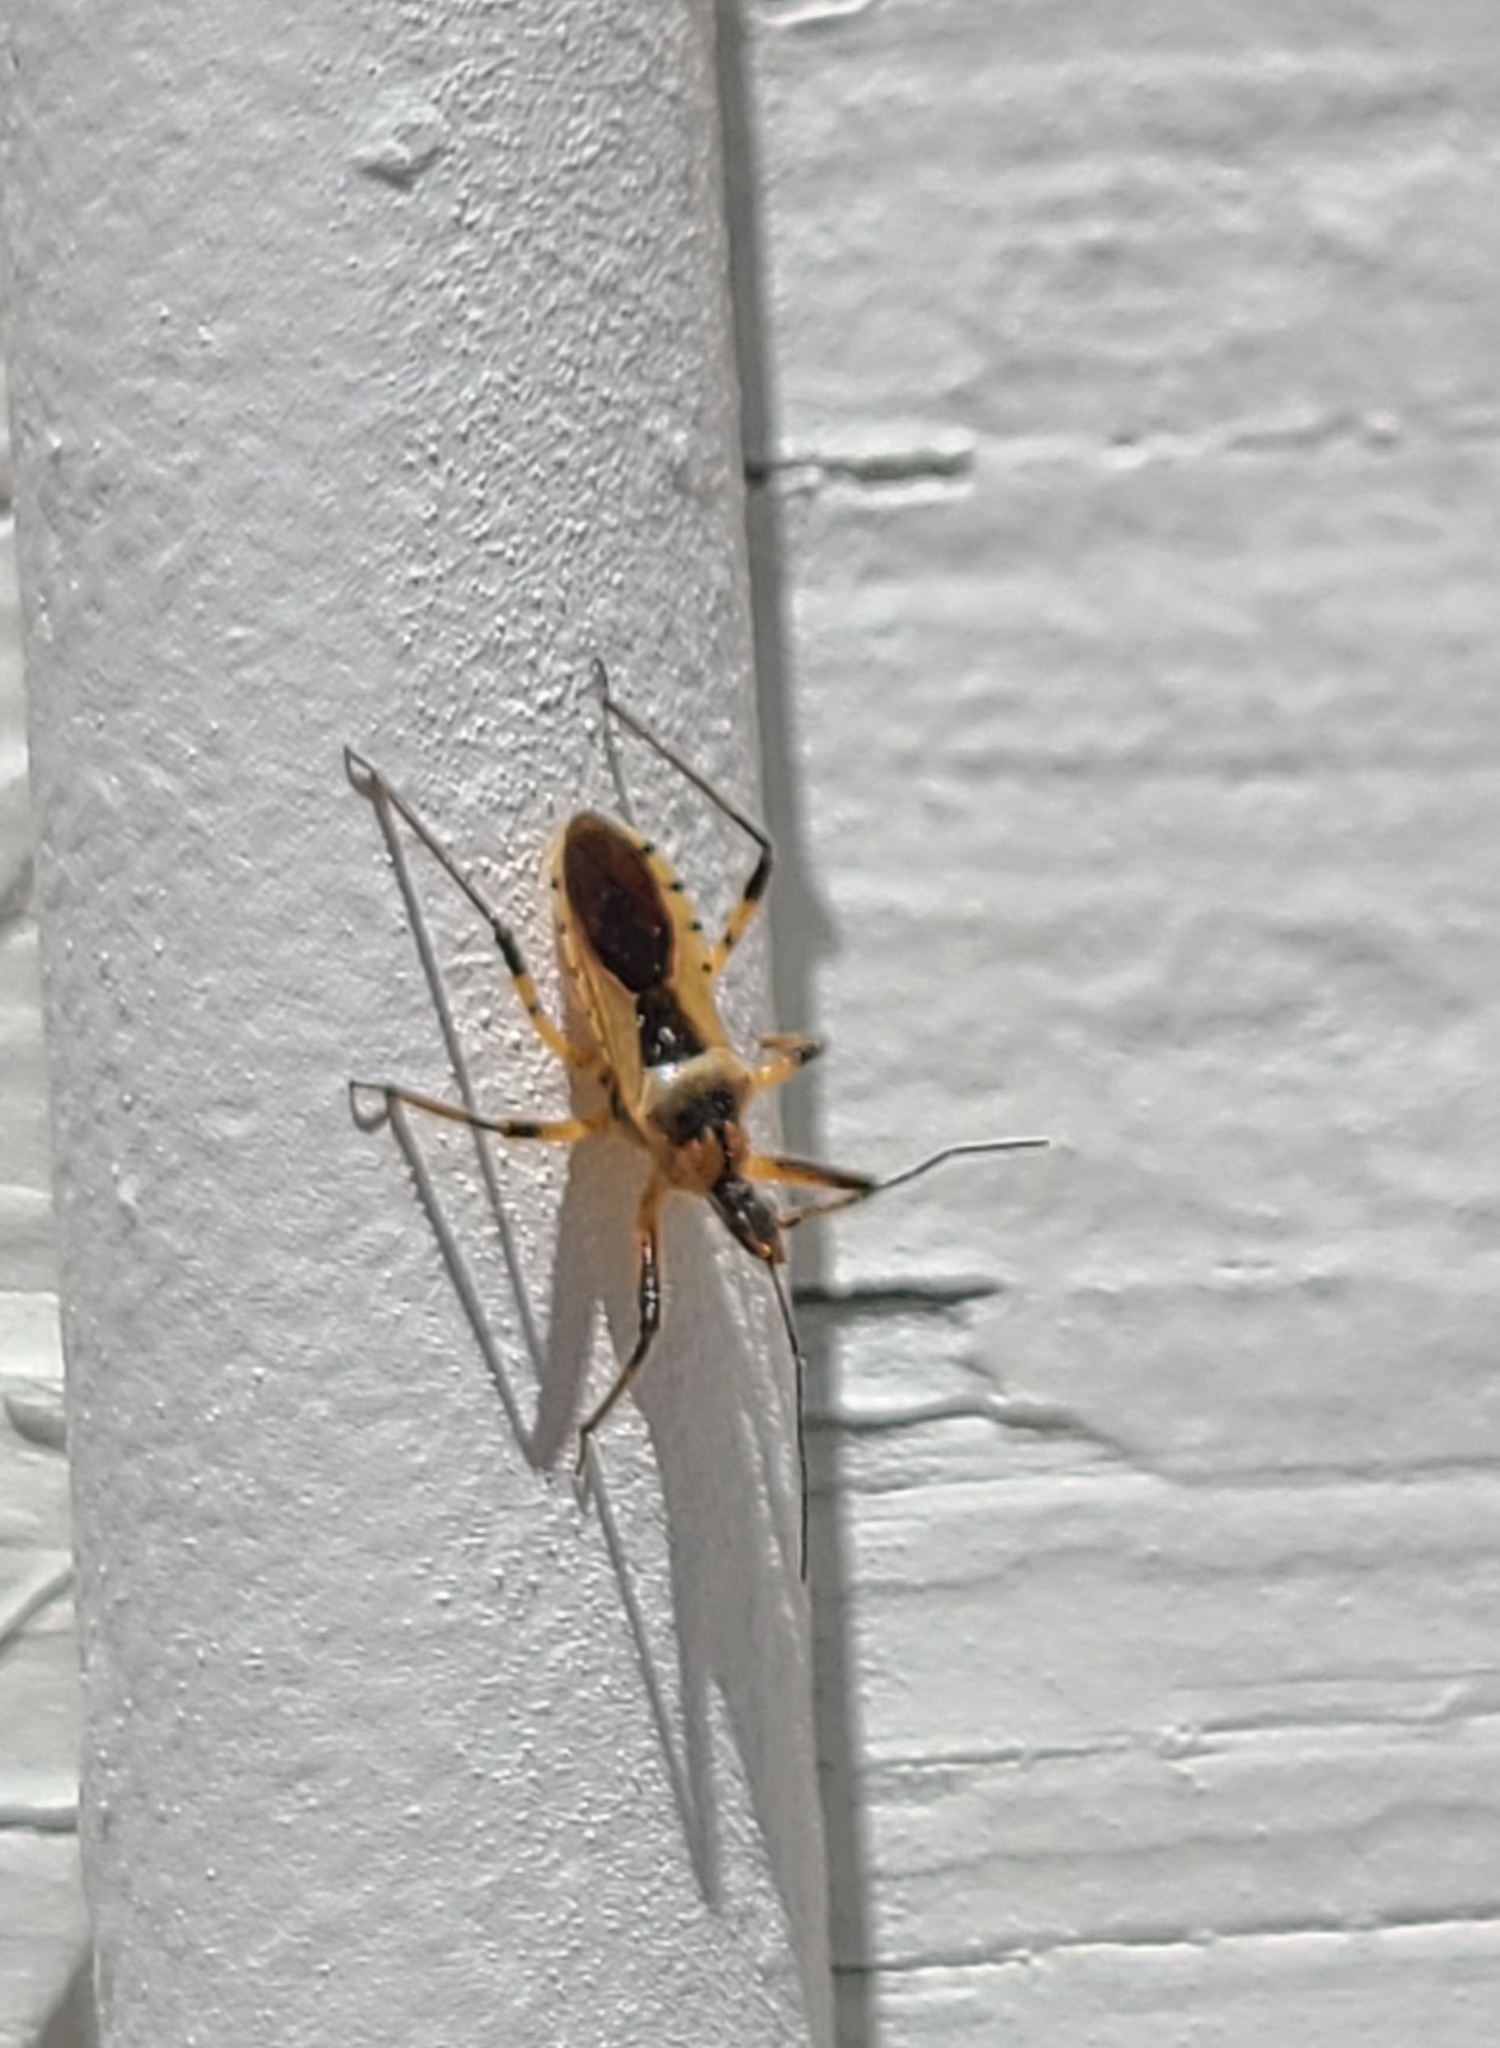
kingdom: Animalia
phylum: Arthropoda
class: Insecta
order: Hemiptera
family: Reduviidae
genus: Rhynocoris
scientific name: Rhynocoris ventralis
